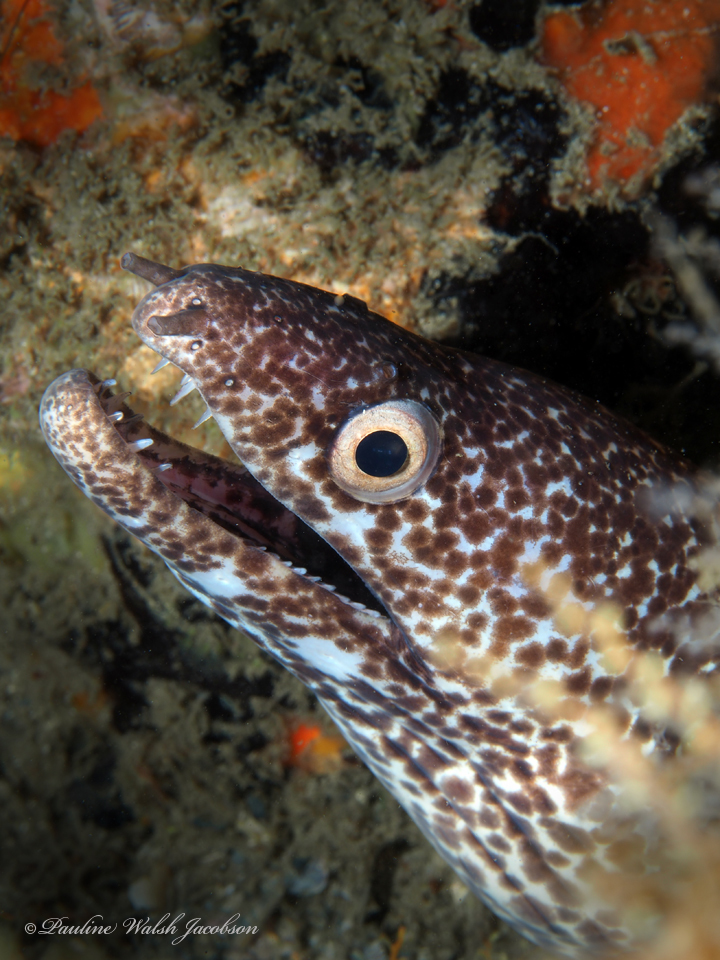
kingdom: Animalia
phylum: Chordata
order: Anguilliformes
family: Muraenidae
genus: Gymnothorax
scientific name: Gymnothorax moringa
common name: Spotted moray
